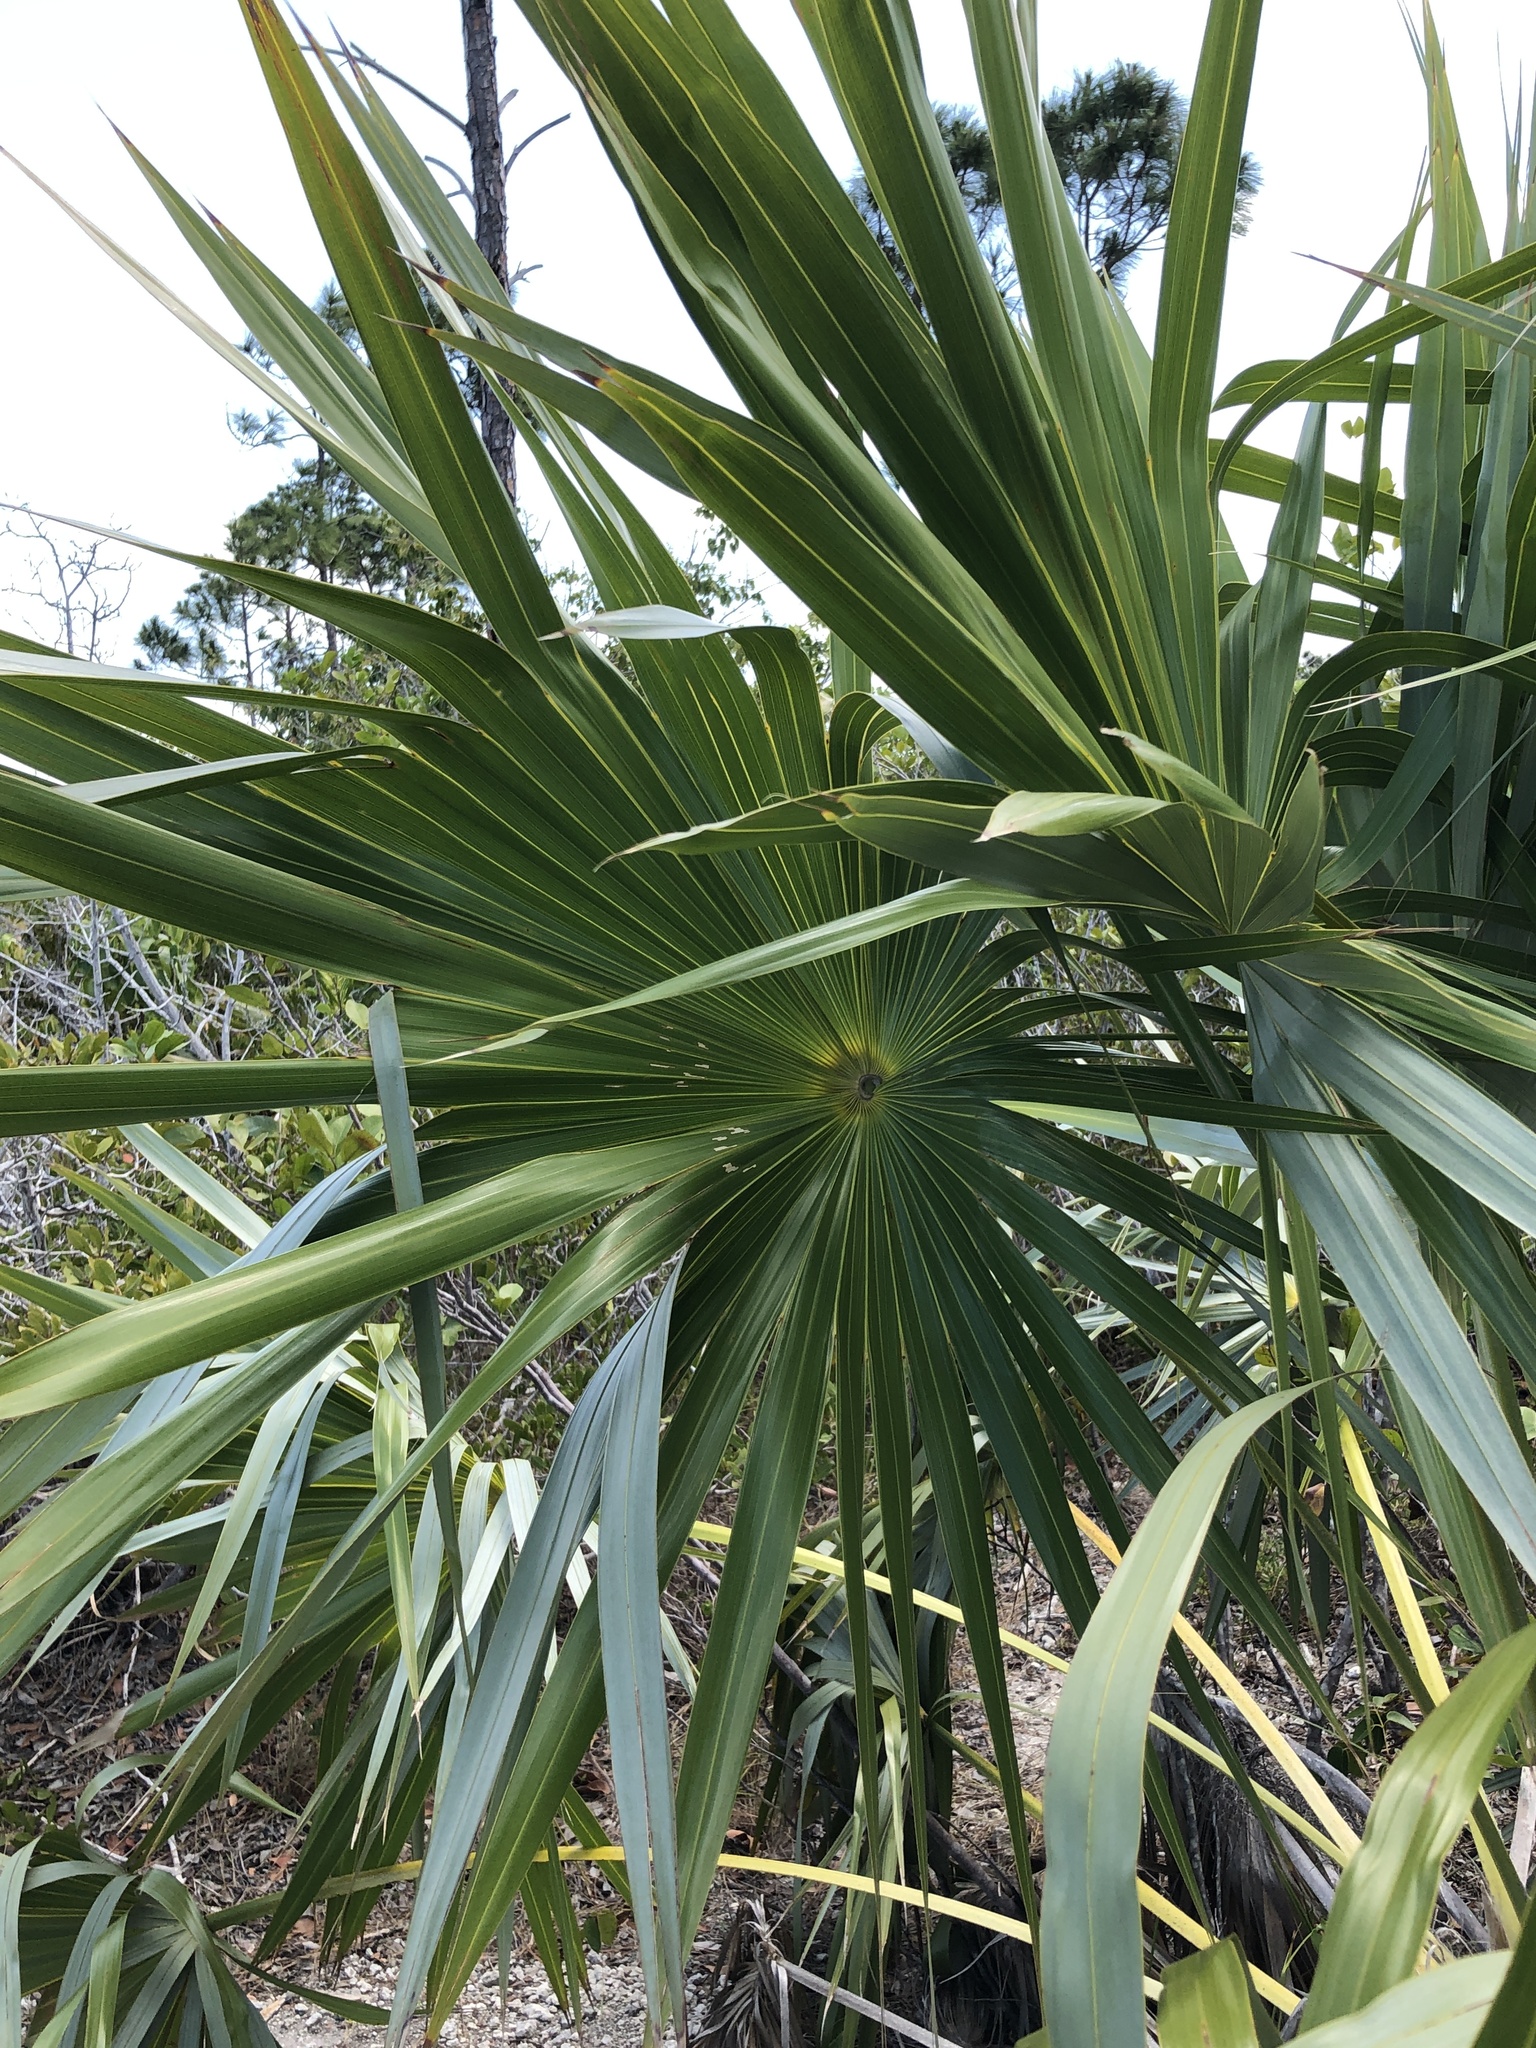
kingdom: Plantae
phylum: Tracheophyta
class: Liliopsida
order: Arecales
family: Arecaceae
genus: Leucothrinax
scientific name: Leucothrinax morrisii
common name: Key palm
